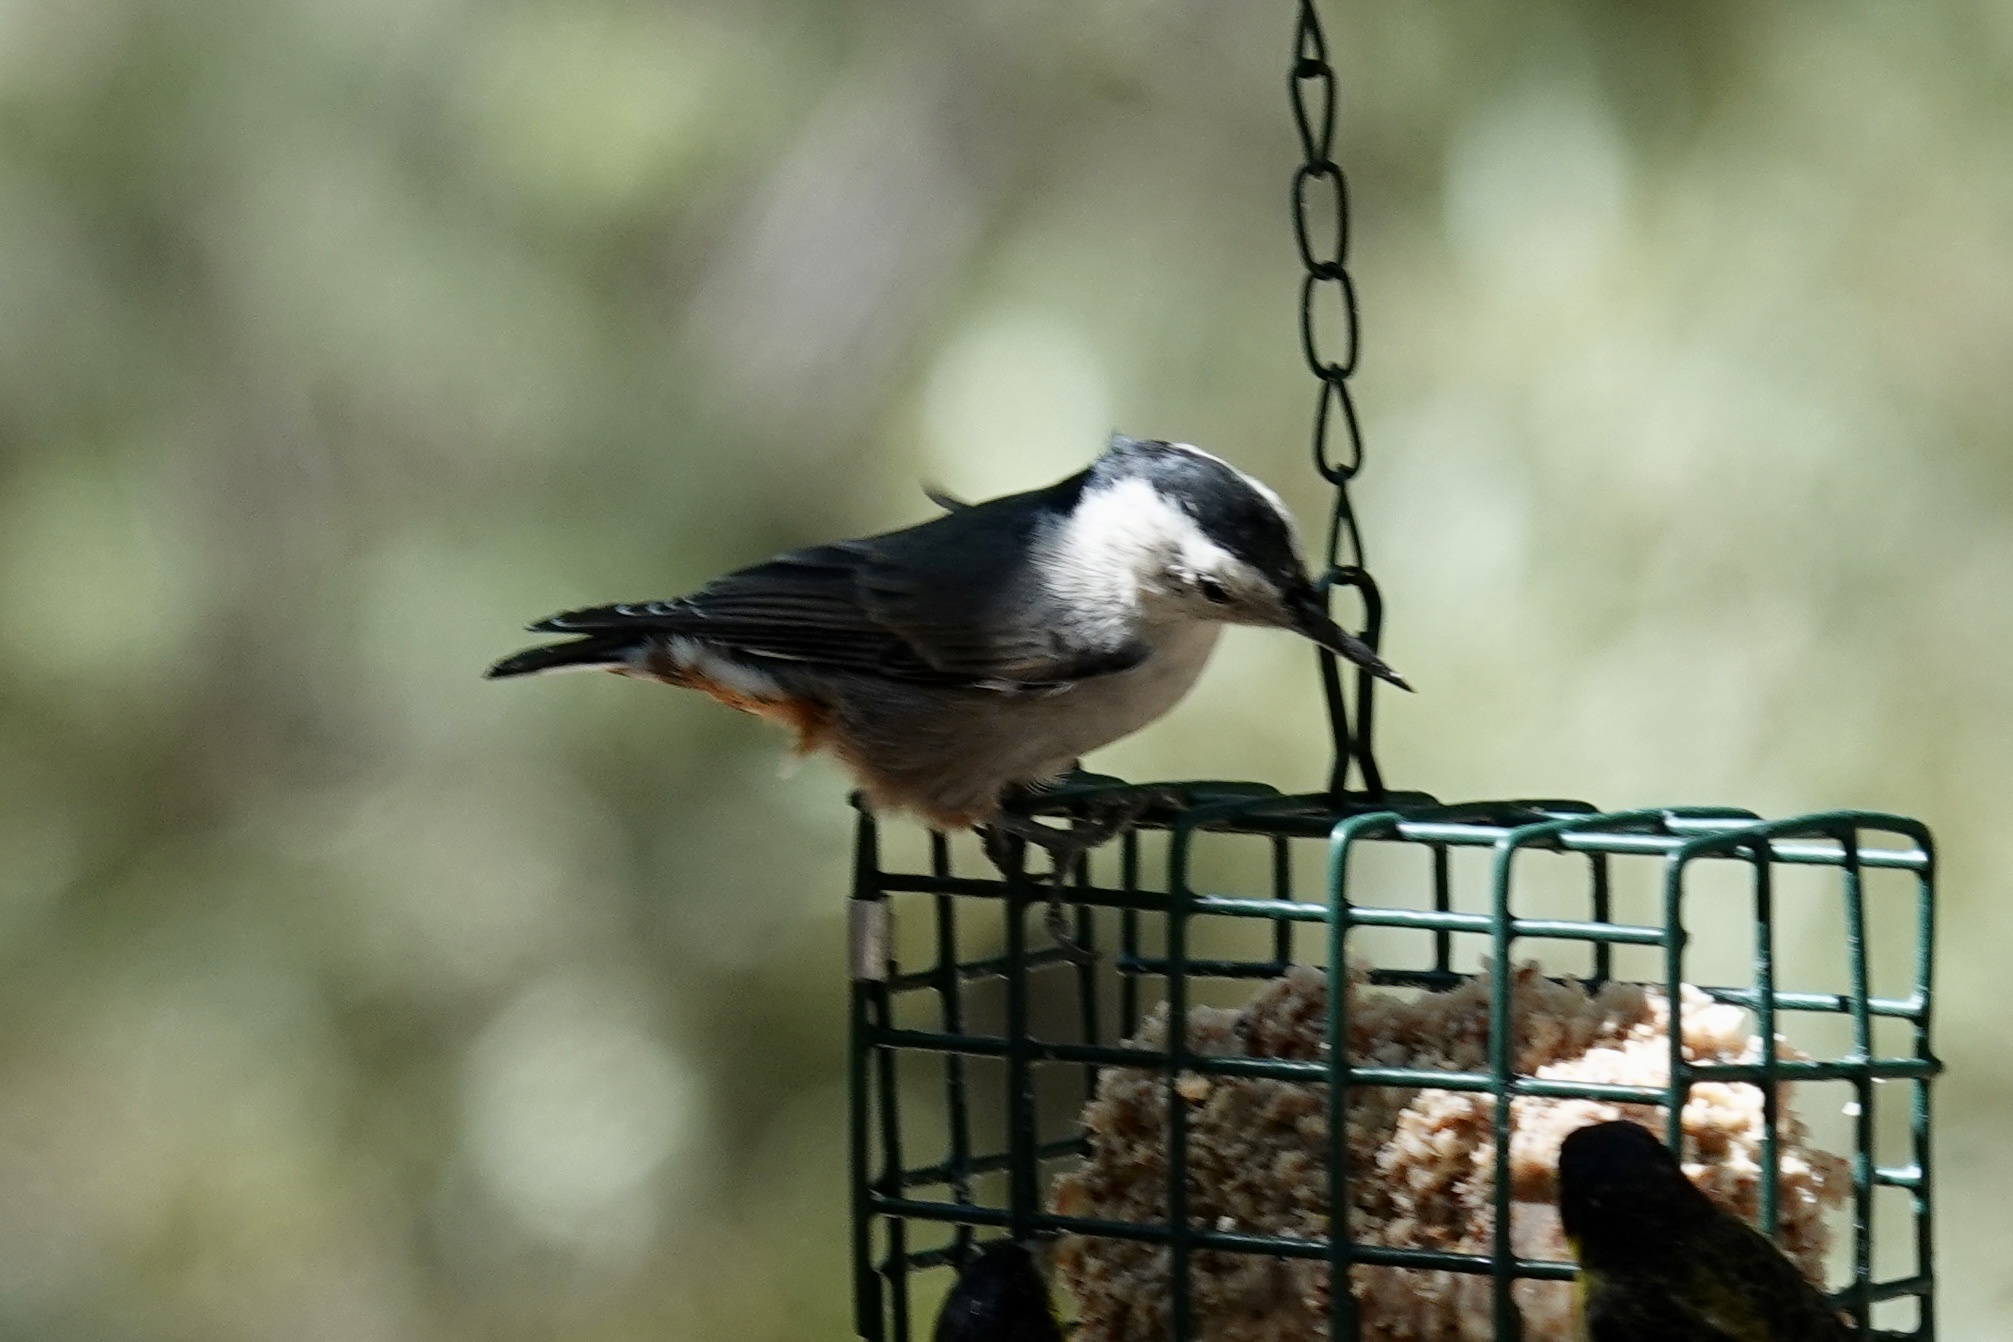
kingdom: Animalia
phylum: Chordata
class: Aves
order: Passeriformes
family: Sittidae
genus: Sitta
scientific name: Sitta carolinensis
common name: White-breasted nuthatch
